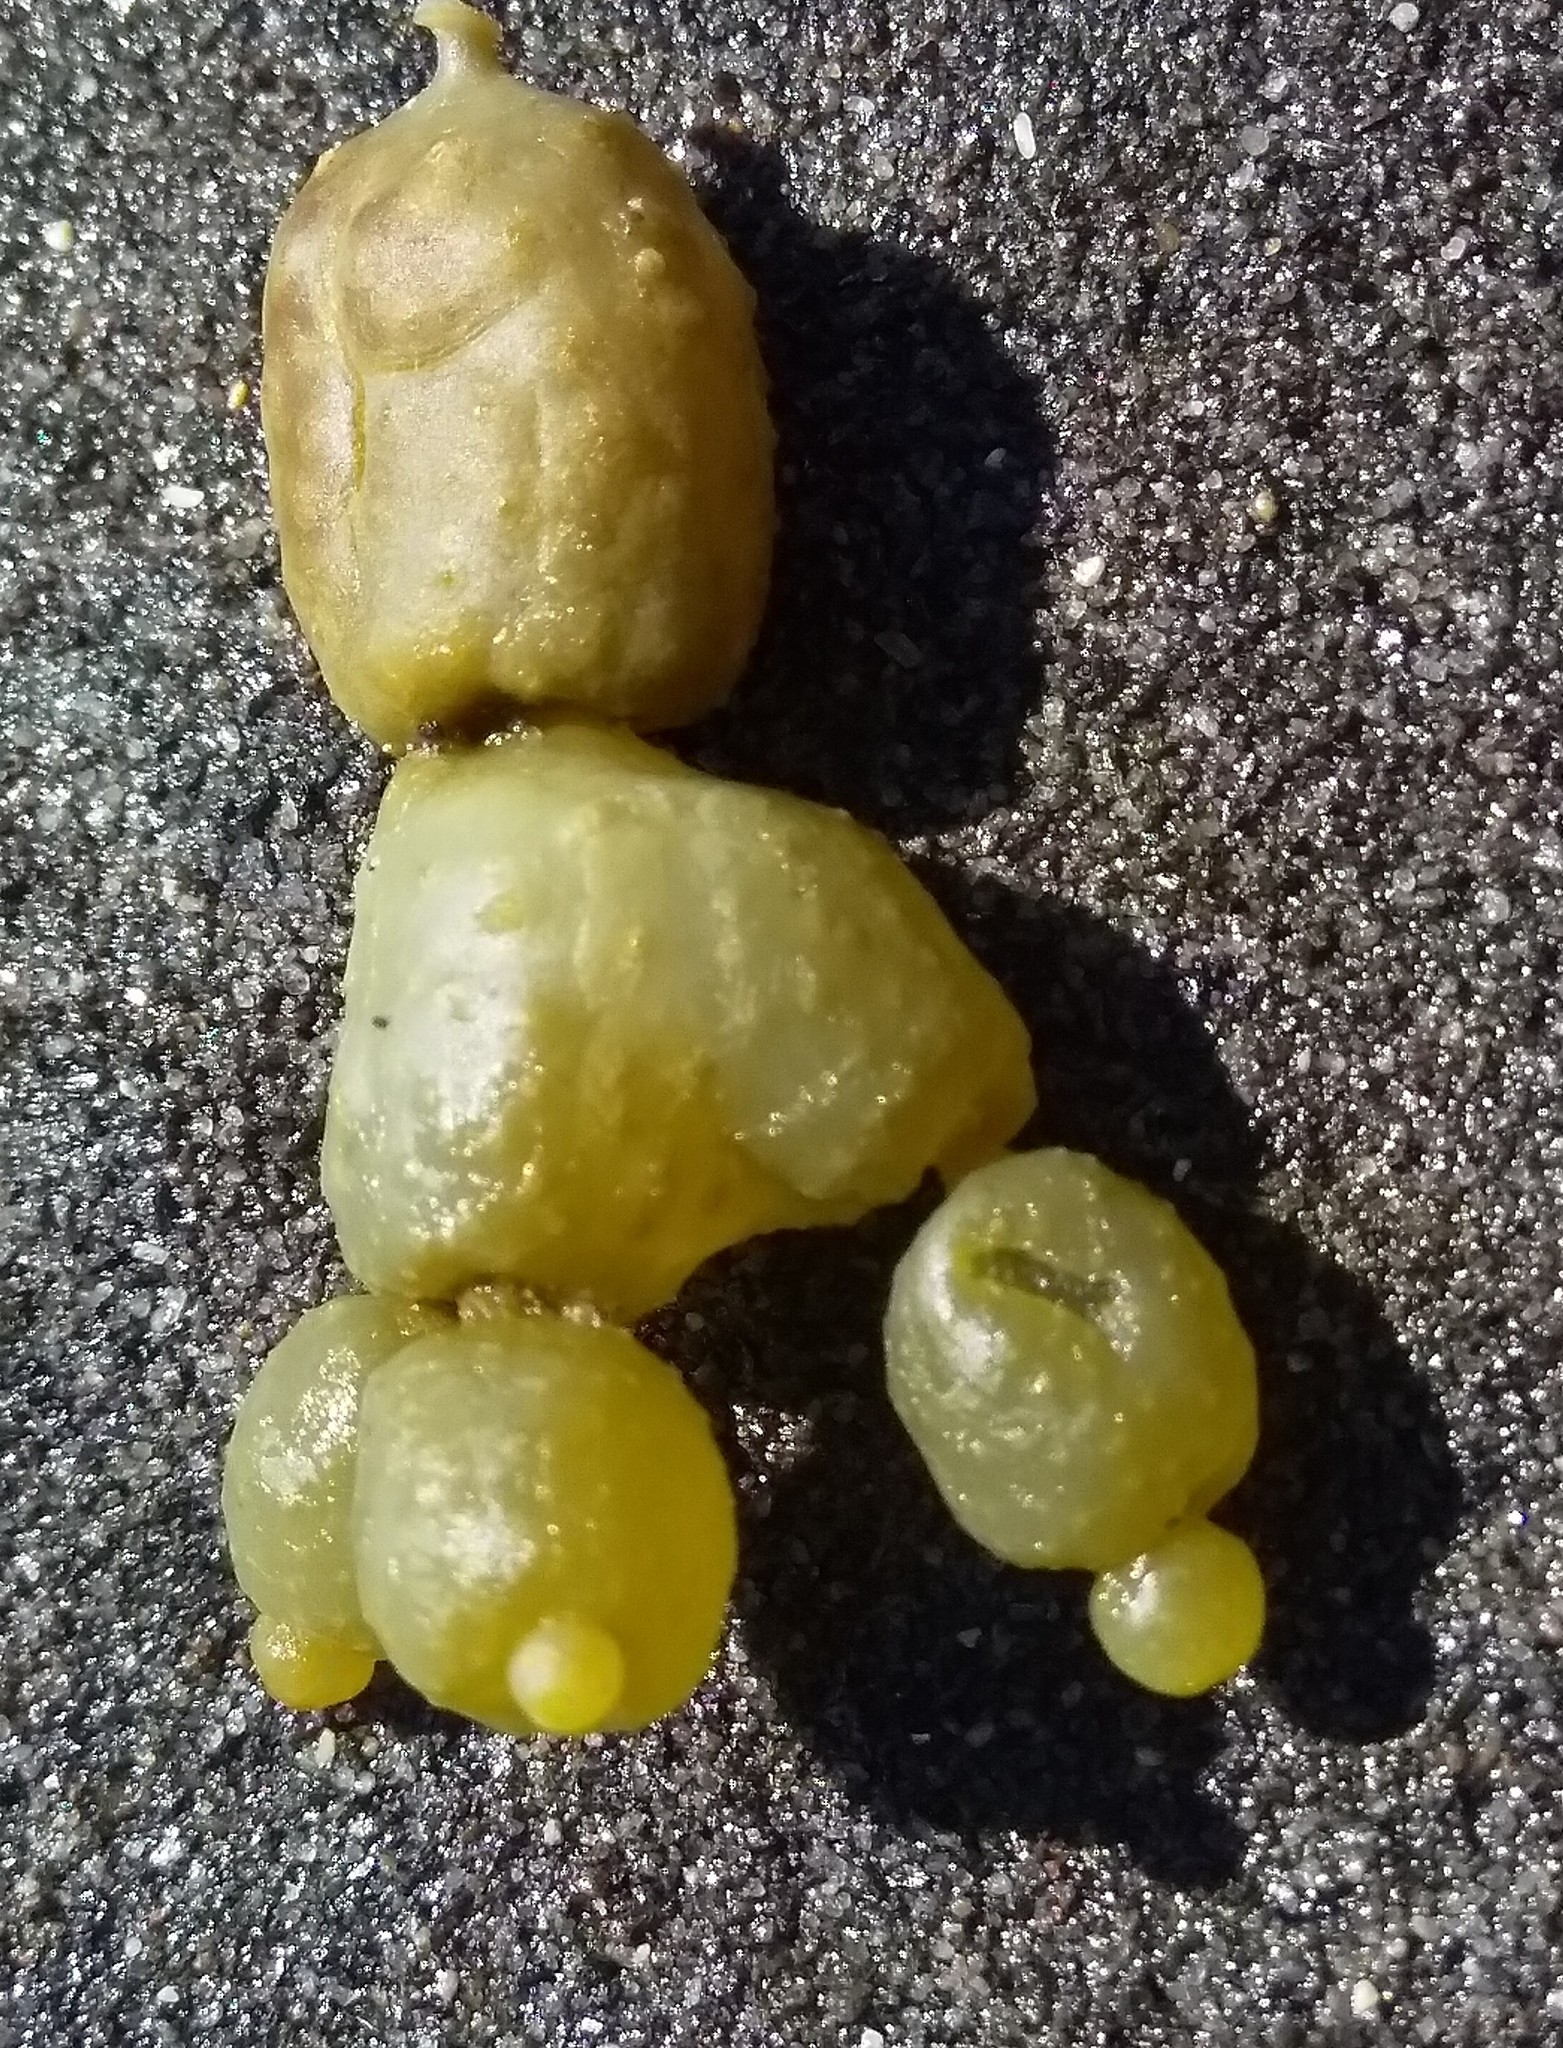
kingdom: Chromista
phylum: Ochrophyta
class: Phaeophyceae
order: Fucales
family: Hormosiraceae
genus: Hormosira
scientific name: Hormosira banksii
